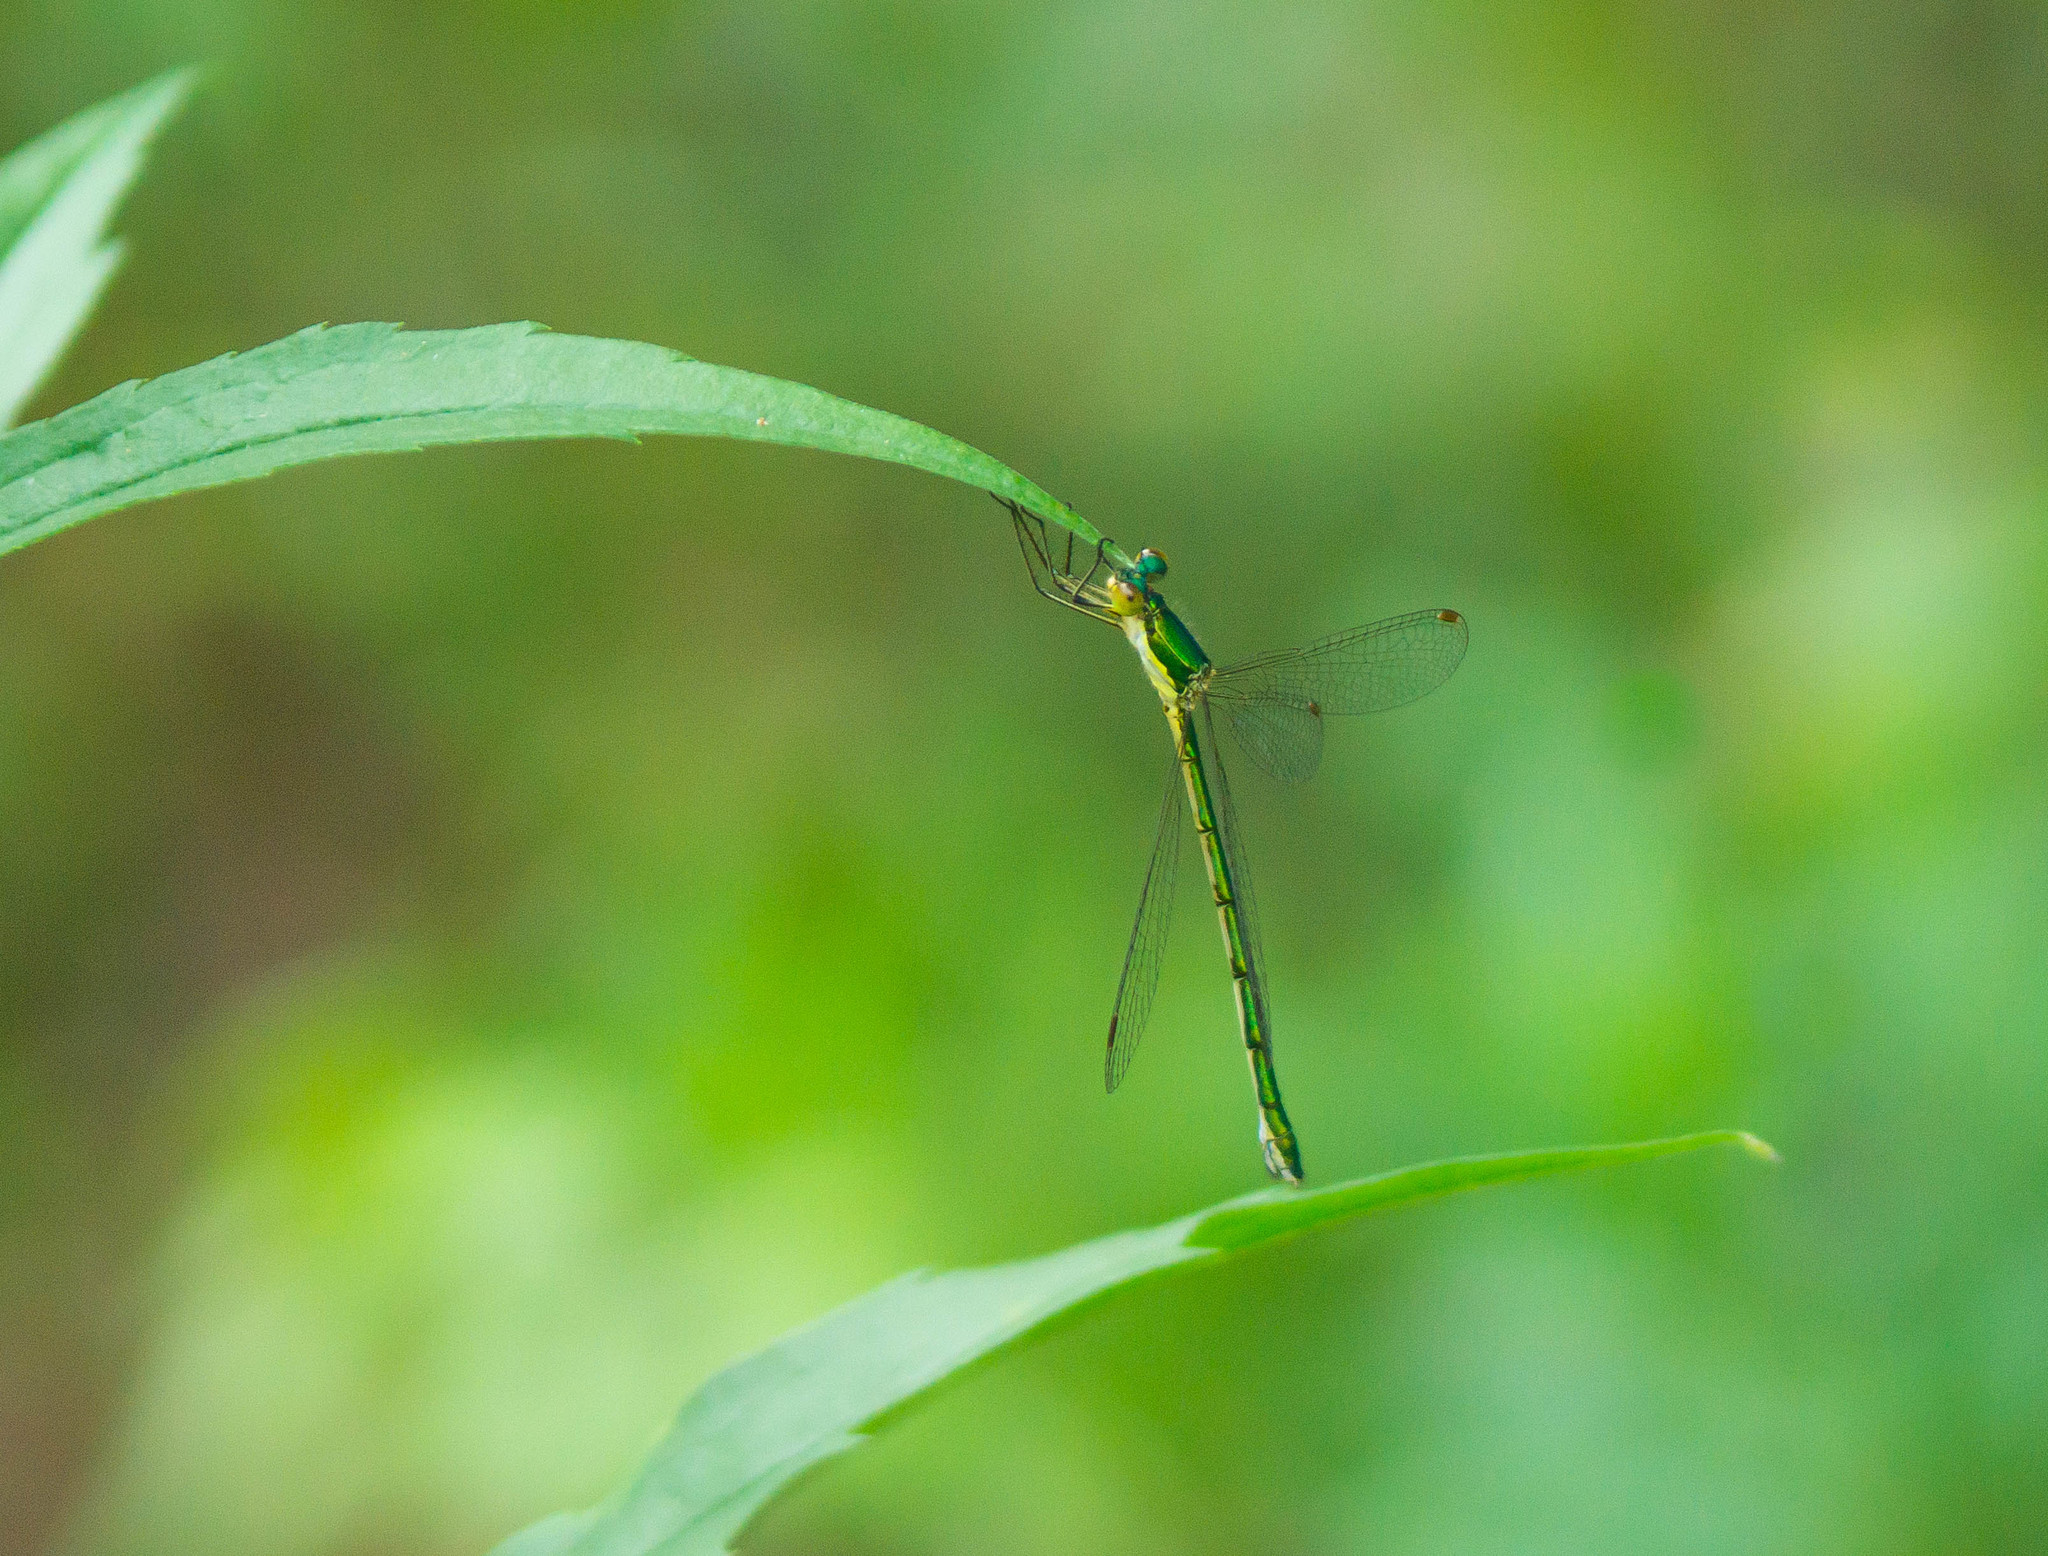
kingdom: Animalia
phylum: Arthropoda
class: Insecta
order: Odonata
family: Lestidae
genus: Lestes
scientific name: Lestes virens
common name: Small emerald spreadwing
